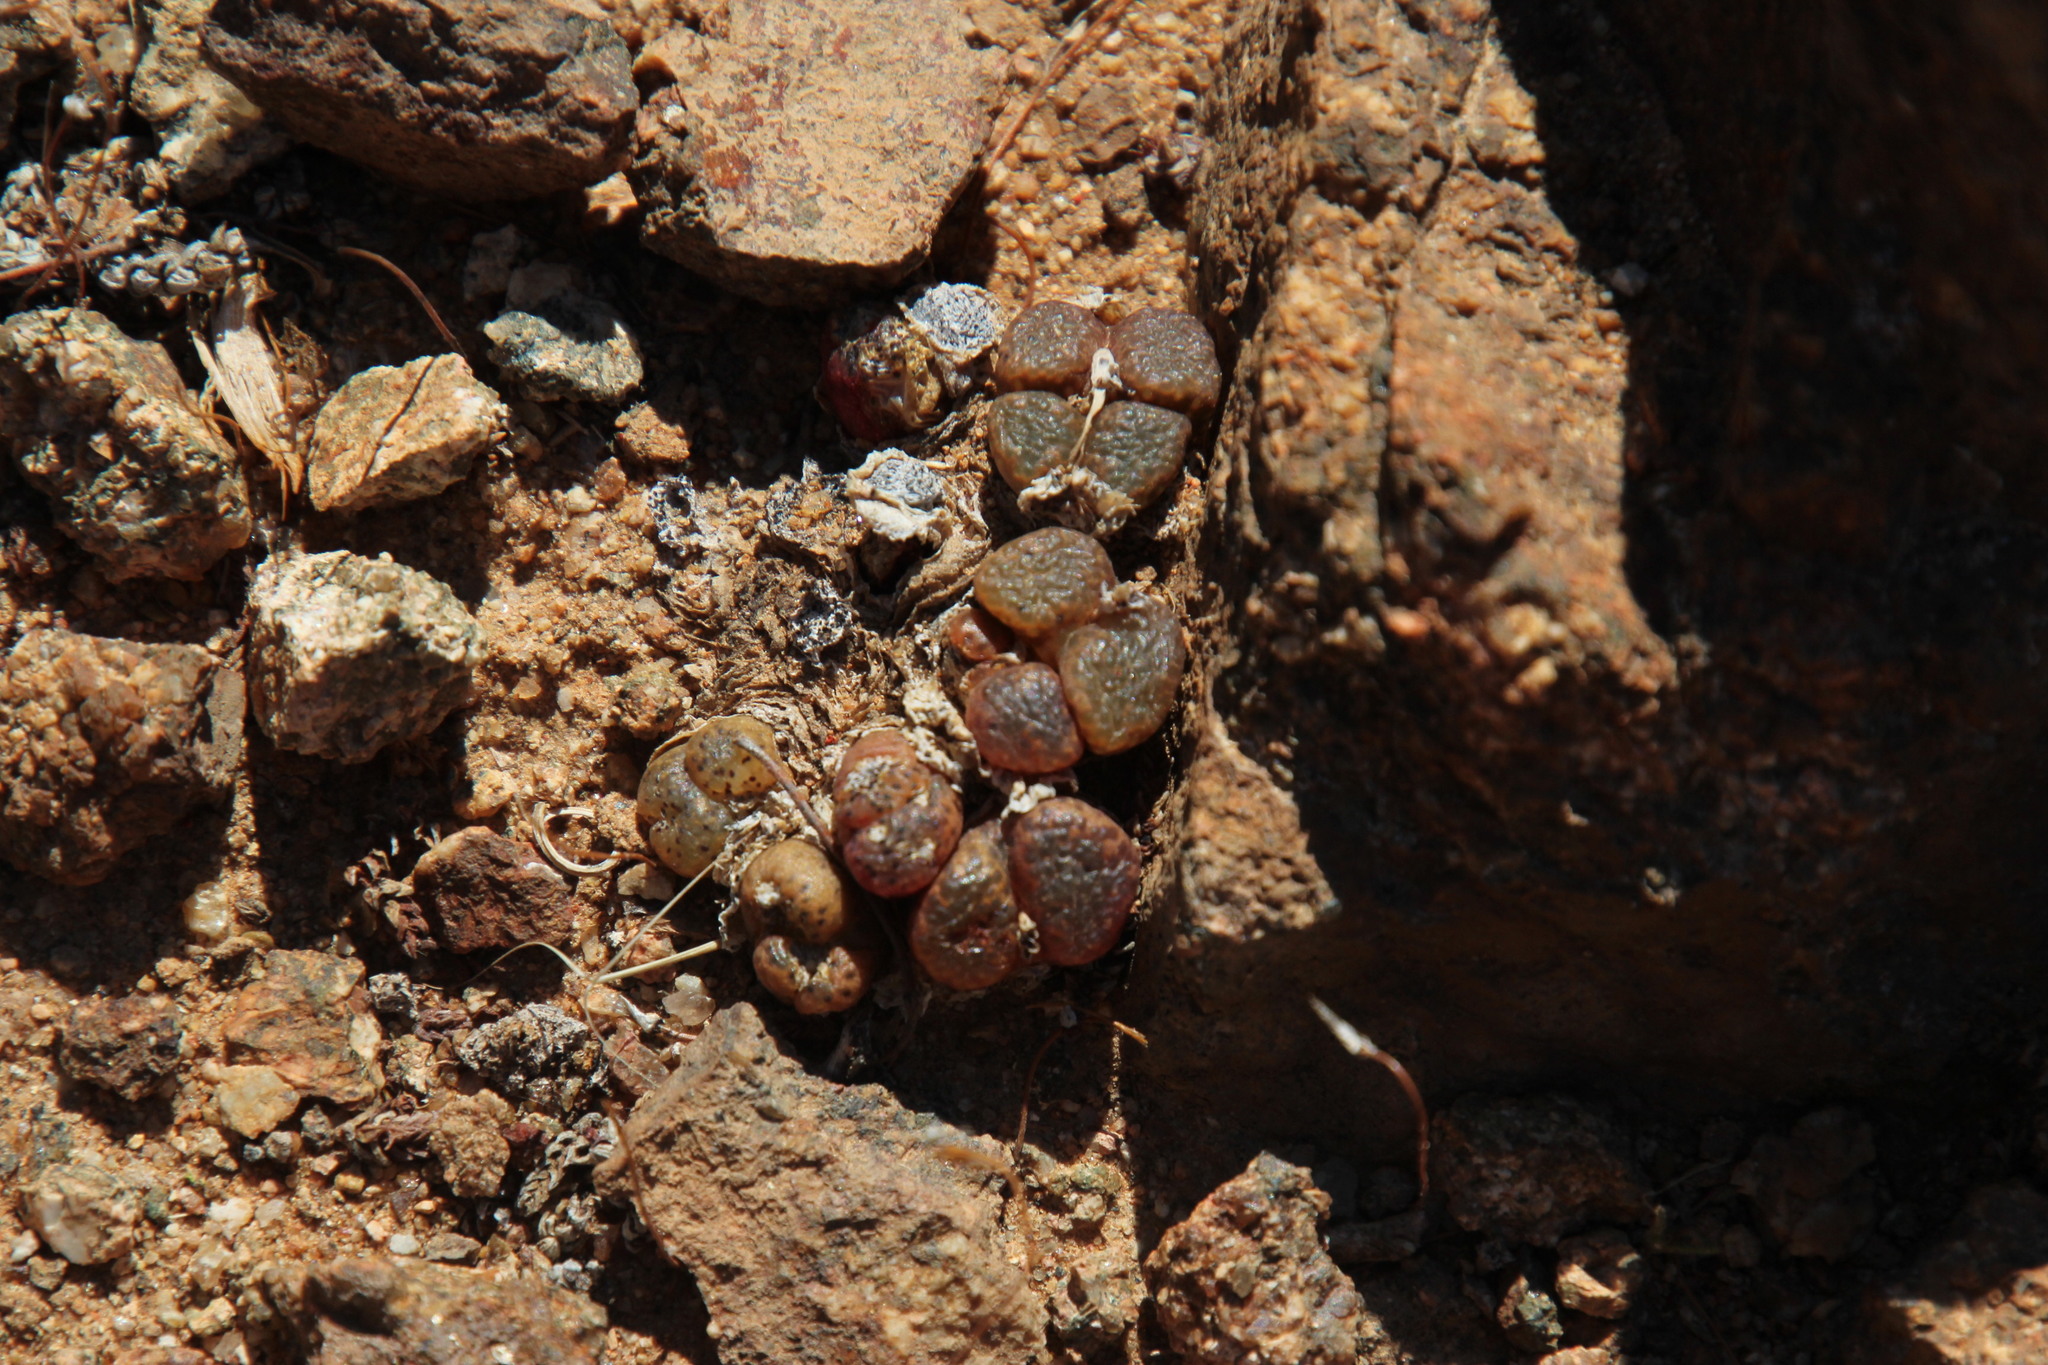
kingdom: Plantae
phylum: Tracheophyta
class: Magnoliopsida
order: Caryophyllales
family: Aizoaceae
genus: Conophytum
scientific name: Conophytum pellucidum
